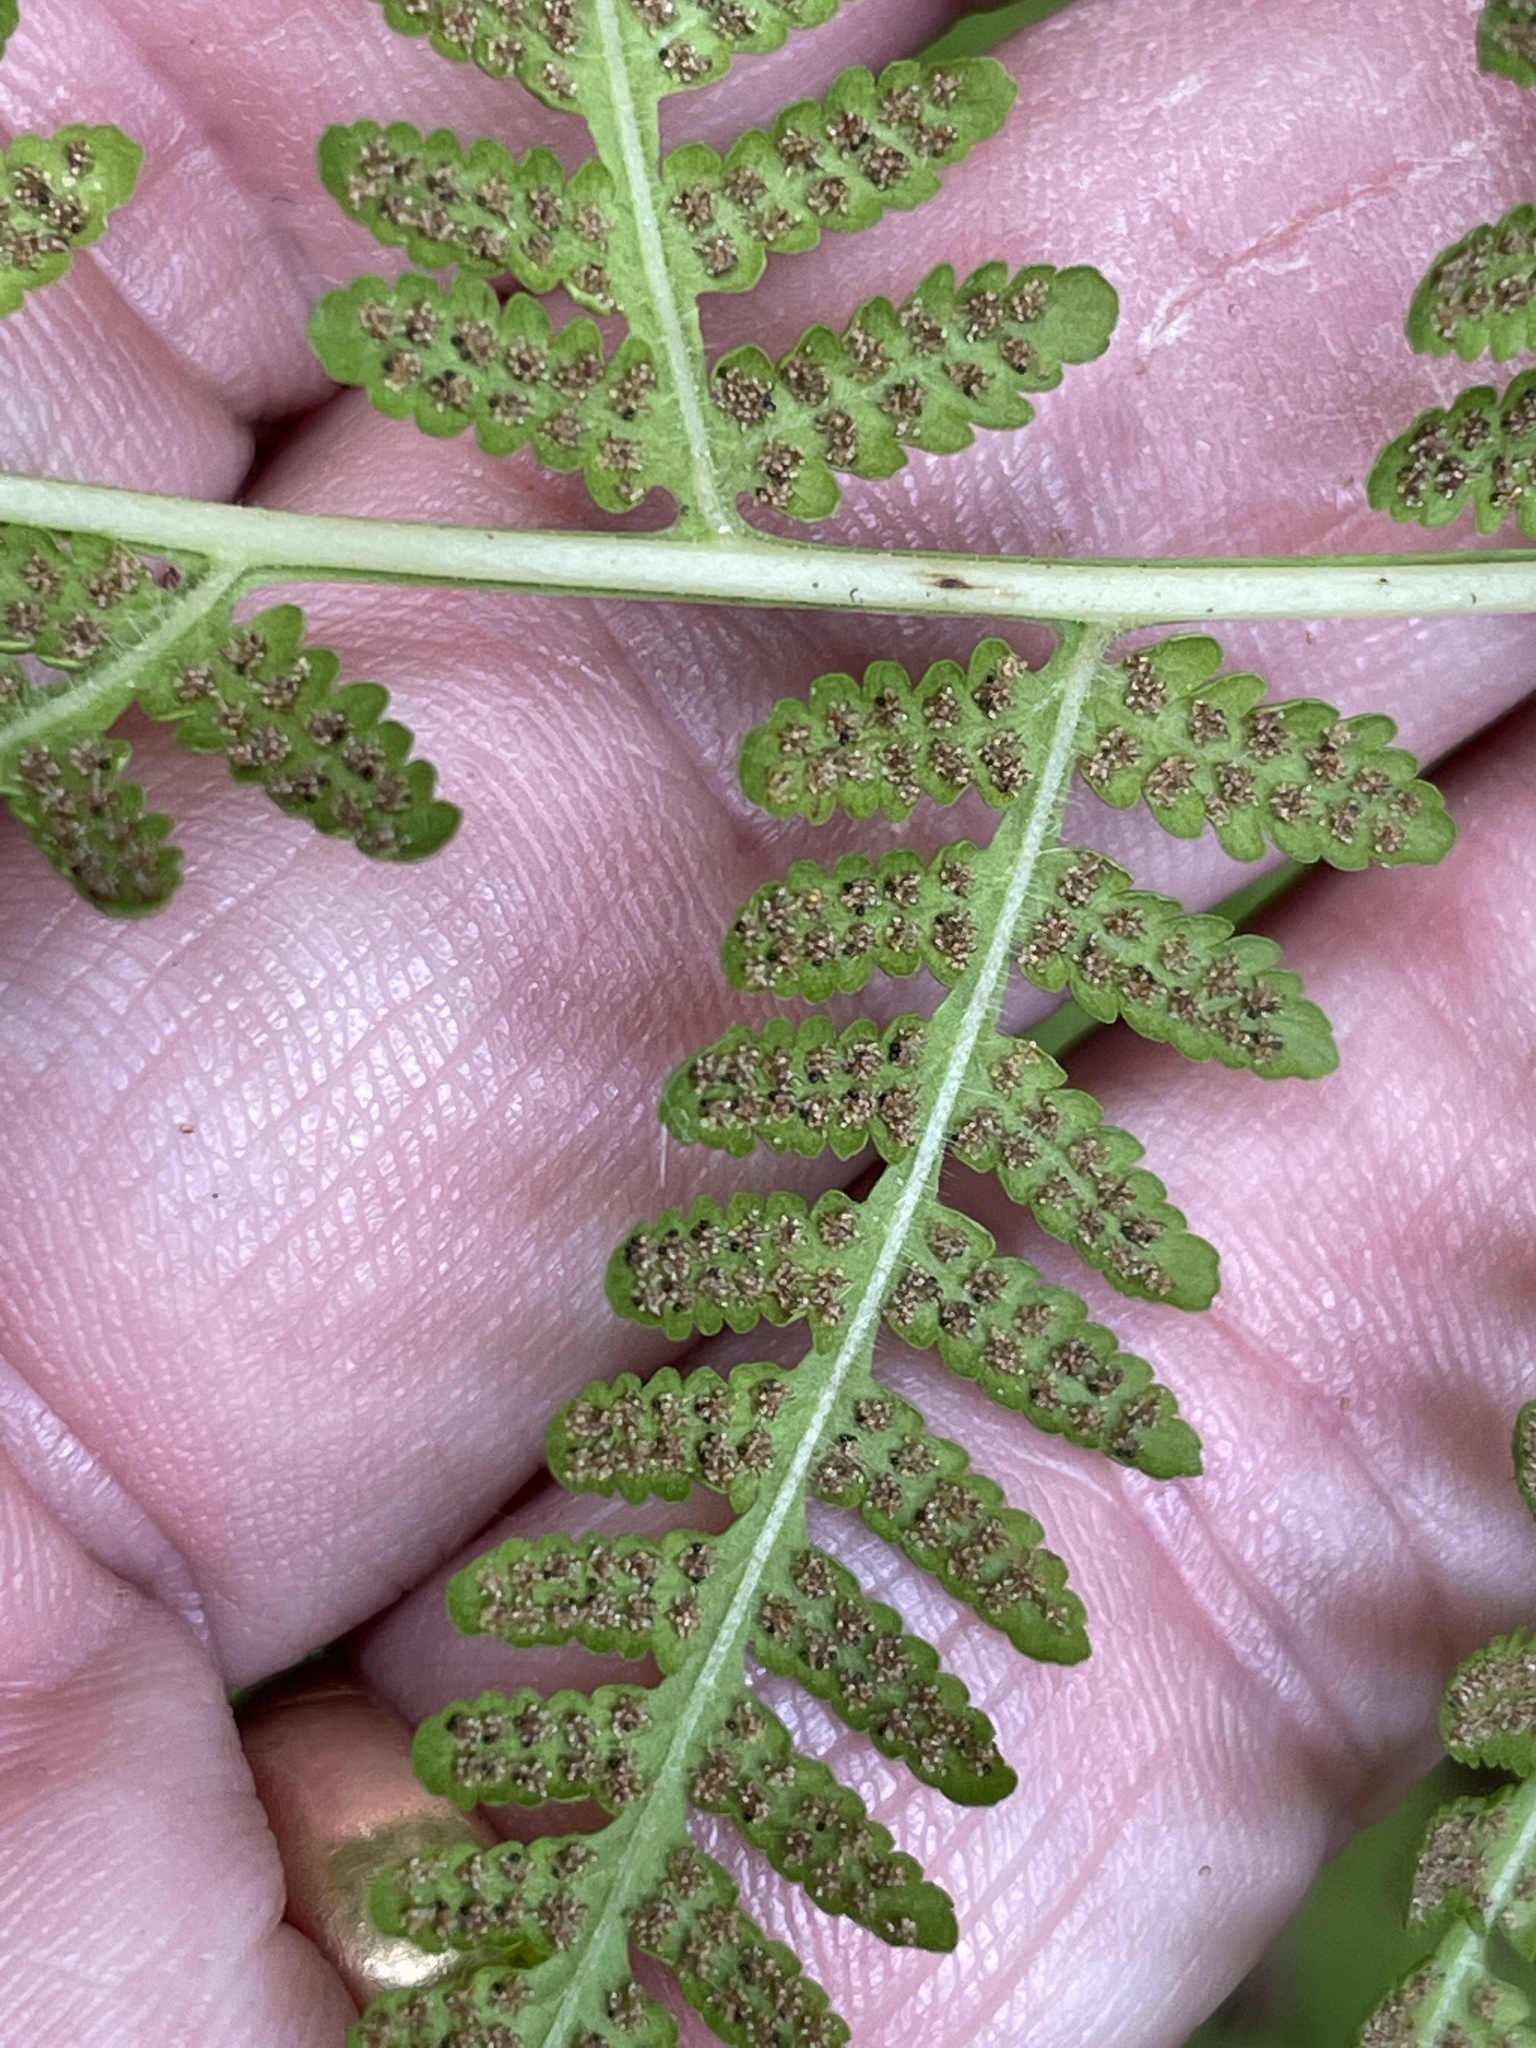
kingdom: Plantae
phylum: Tracheophyta
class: Polypodiopsida
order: Polypodiales
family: Thelypteridaceae
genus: Macrothelypteris
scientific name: Macrothelypteris torresiana
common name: Swordfern
